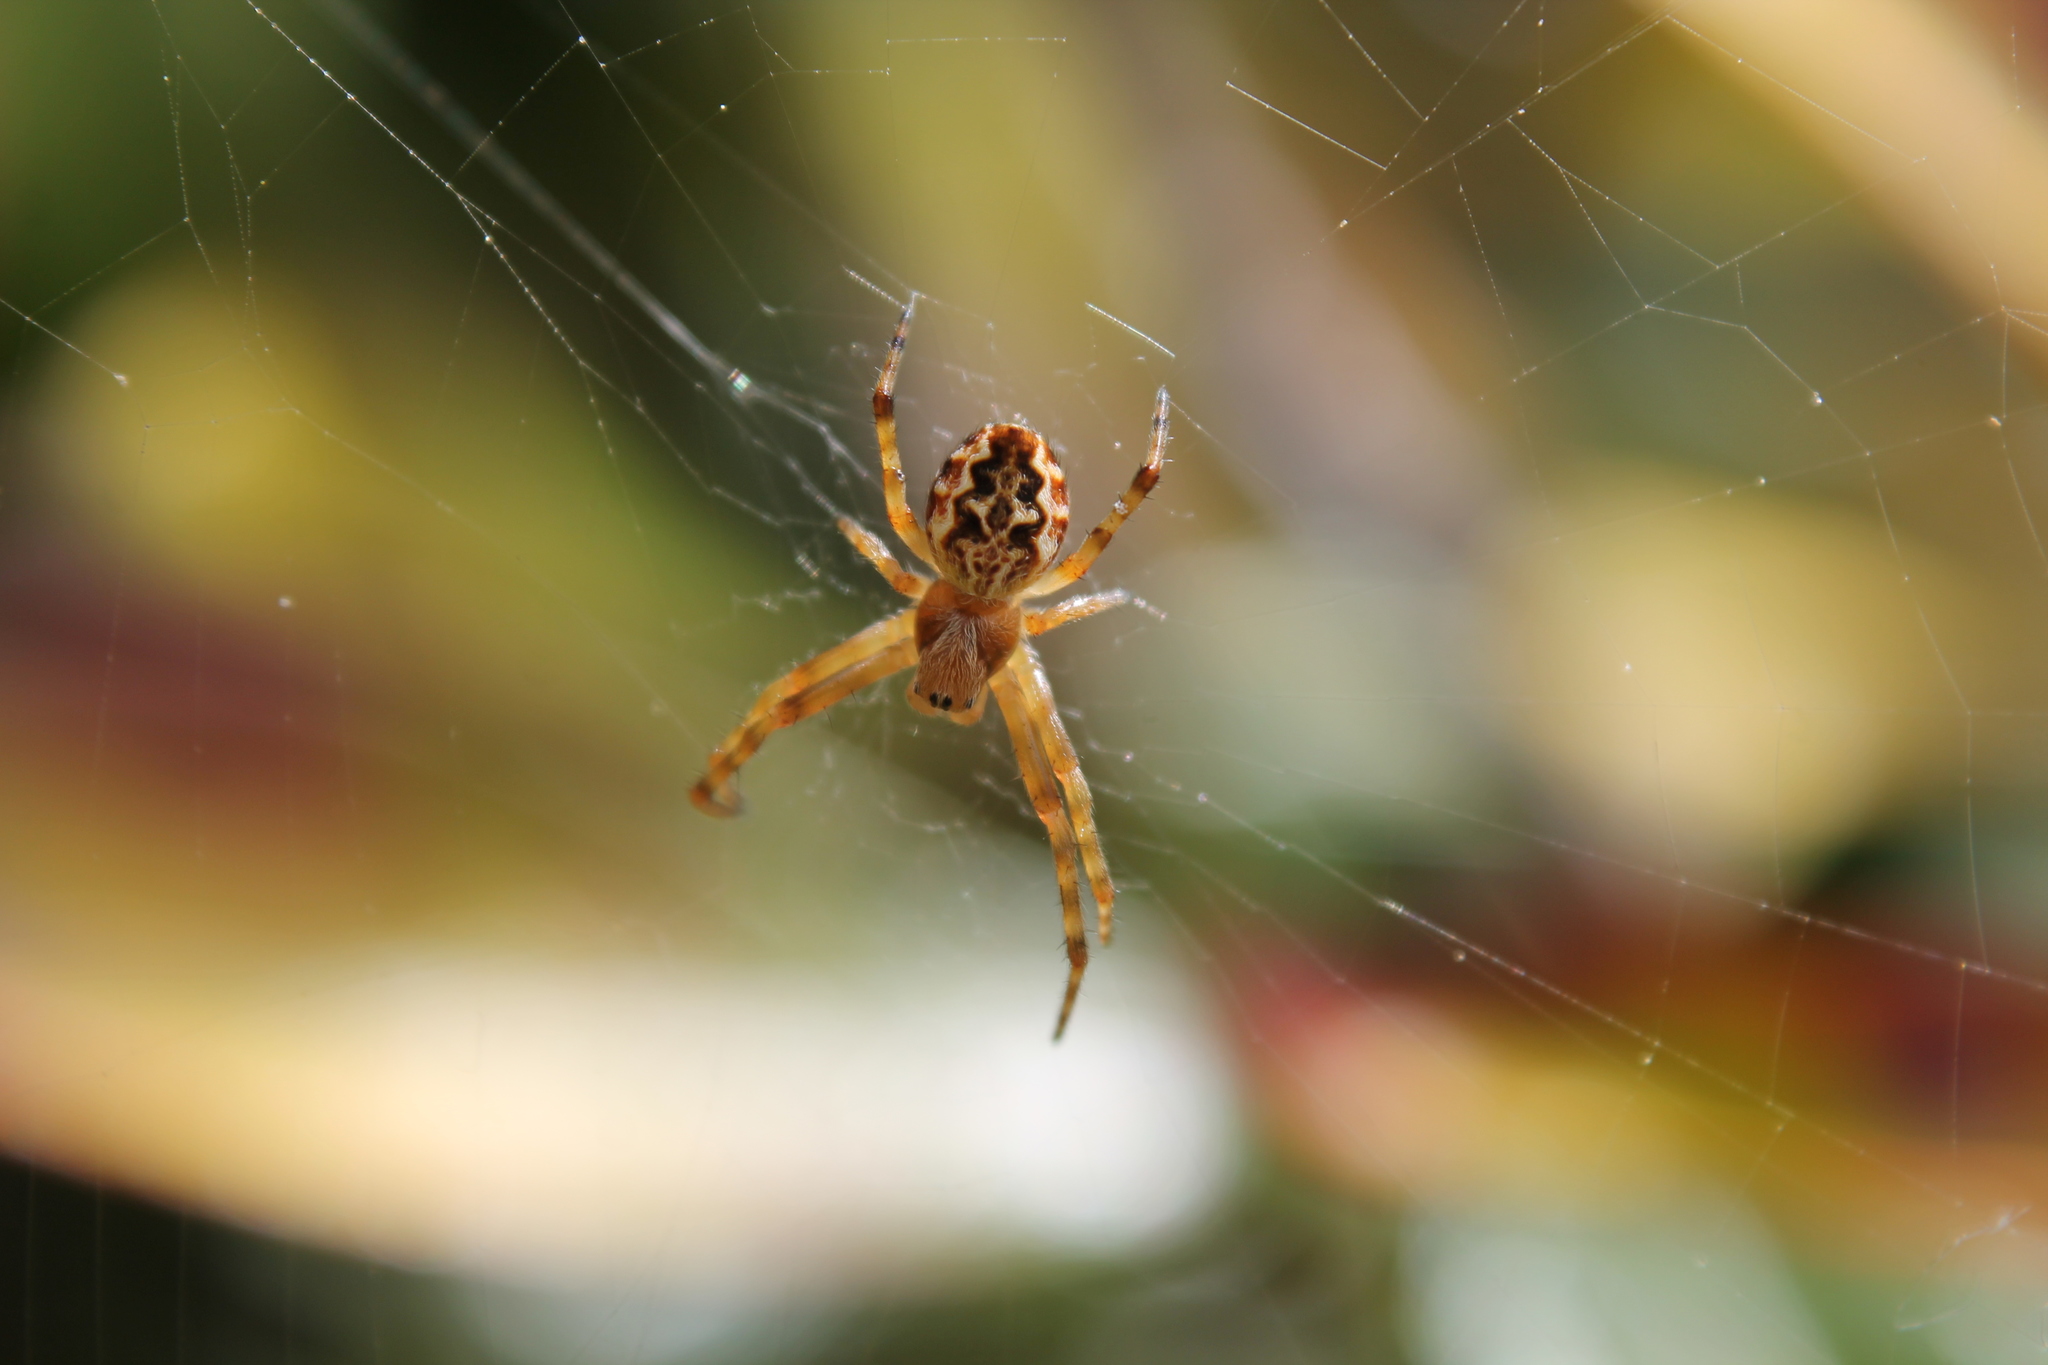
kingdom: Animalia
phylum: Arthropoda
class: Arachnida
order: Araneae
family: Araneidae
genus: Salsa
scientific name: Salsa fuliginata
